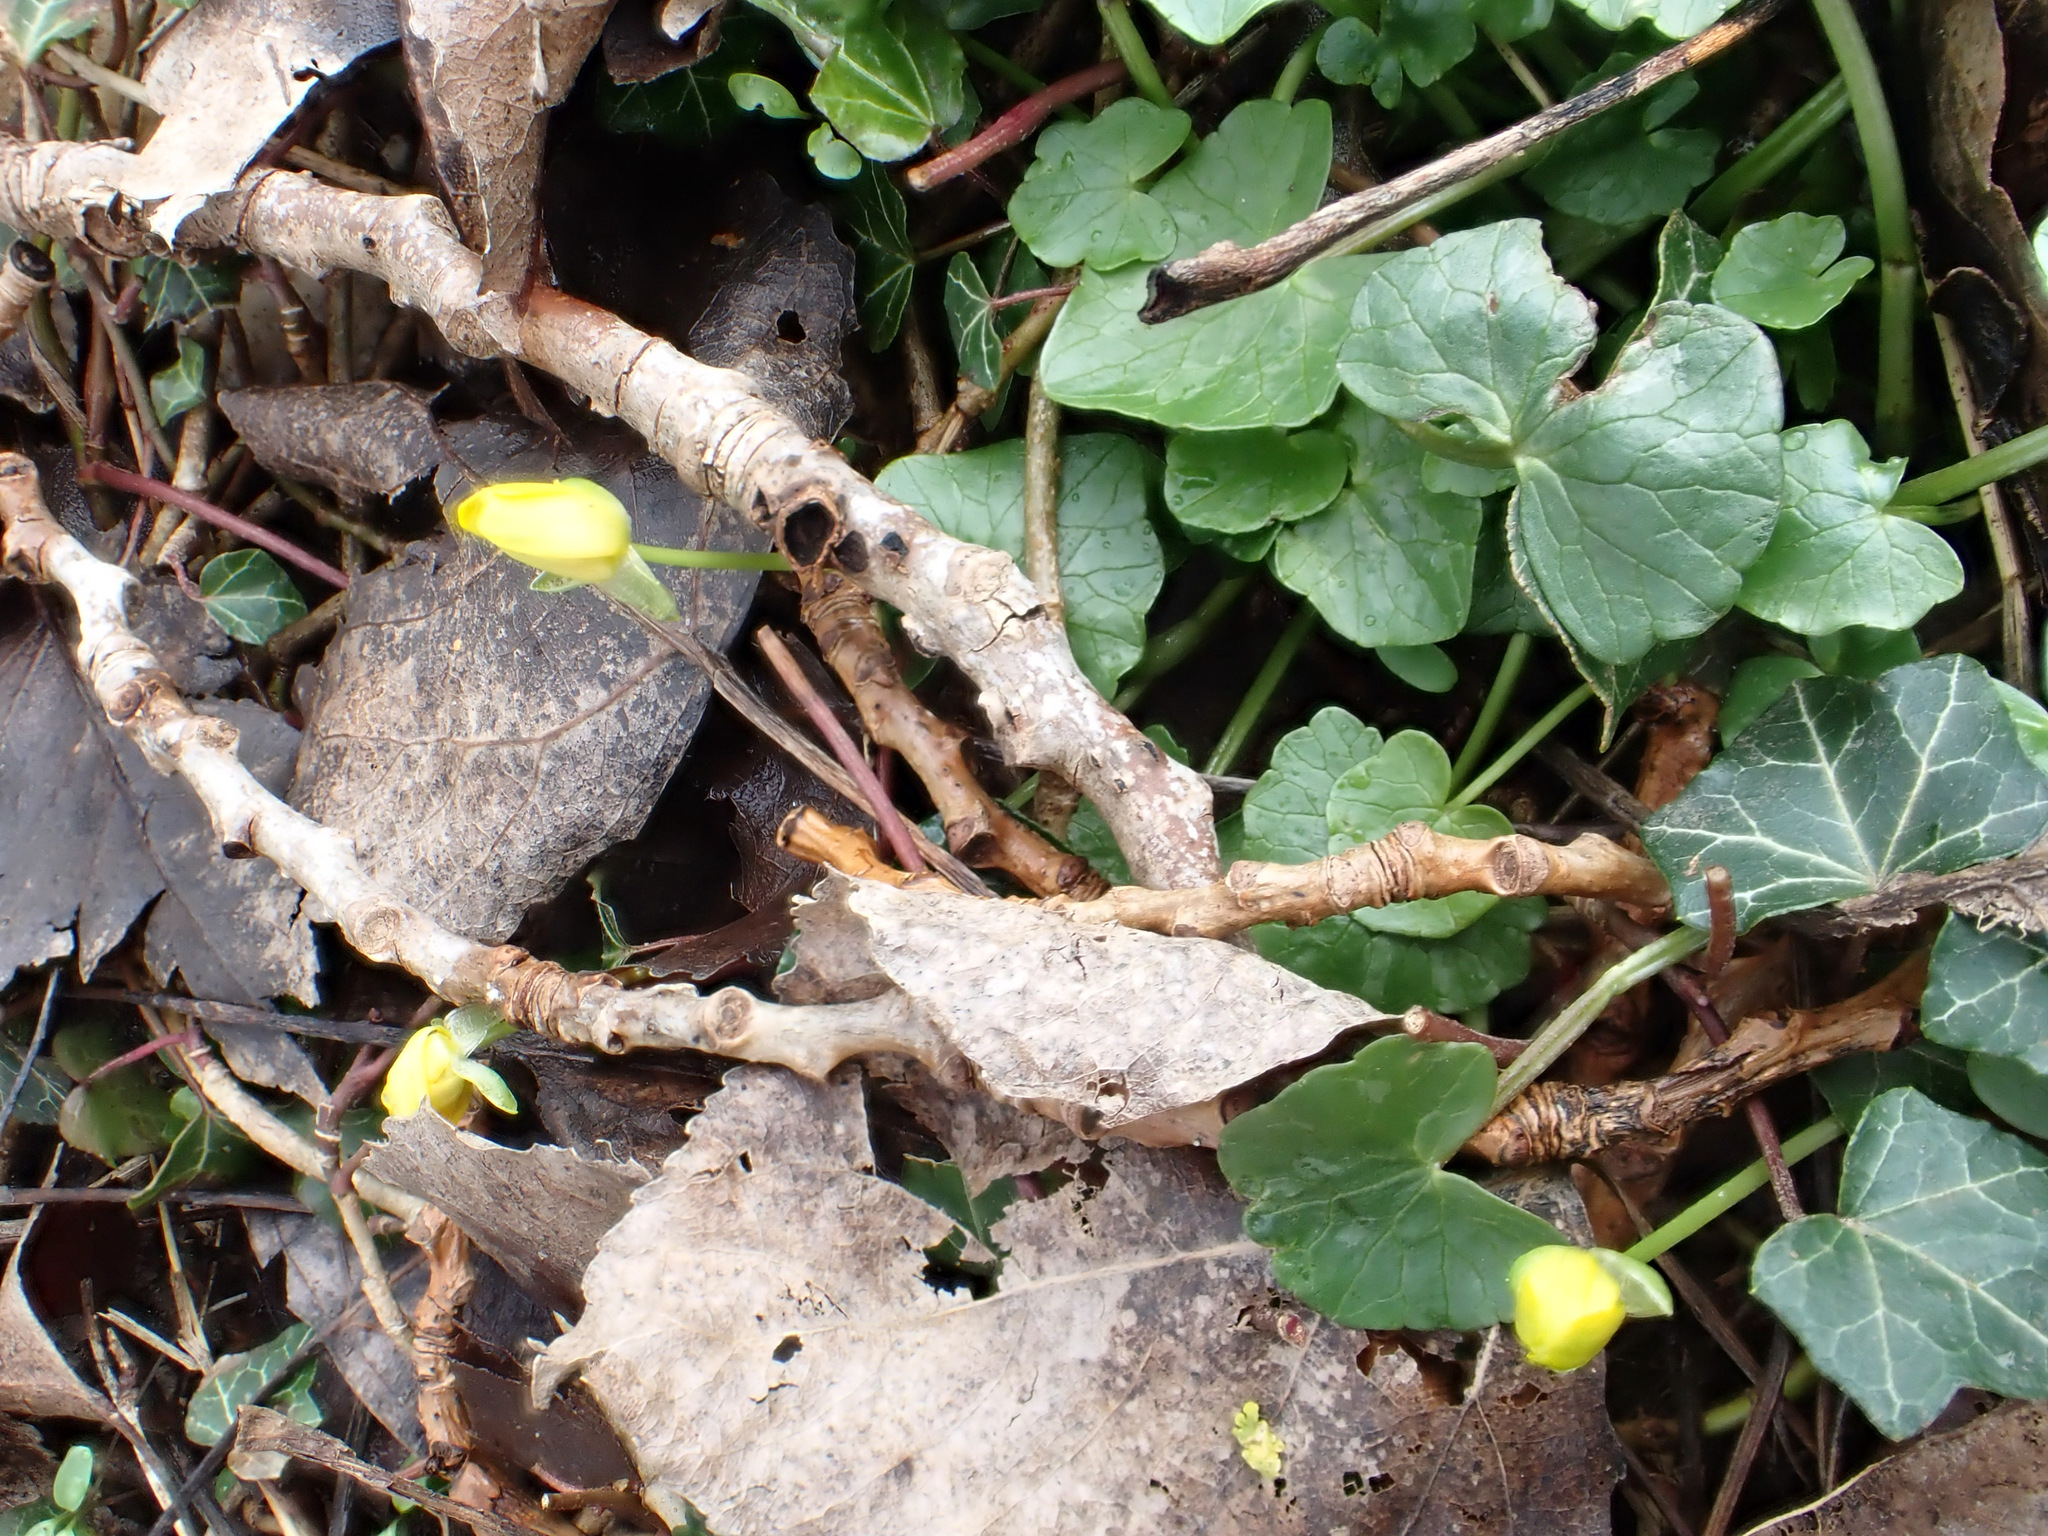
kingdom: Plantae
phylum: Tracheophyta
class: Magnoliopsida
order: Ranunculales
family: Ranunculaceae
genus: Ficaria
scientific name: Ficaria verna
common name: Lesser celandine
